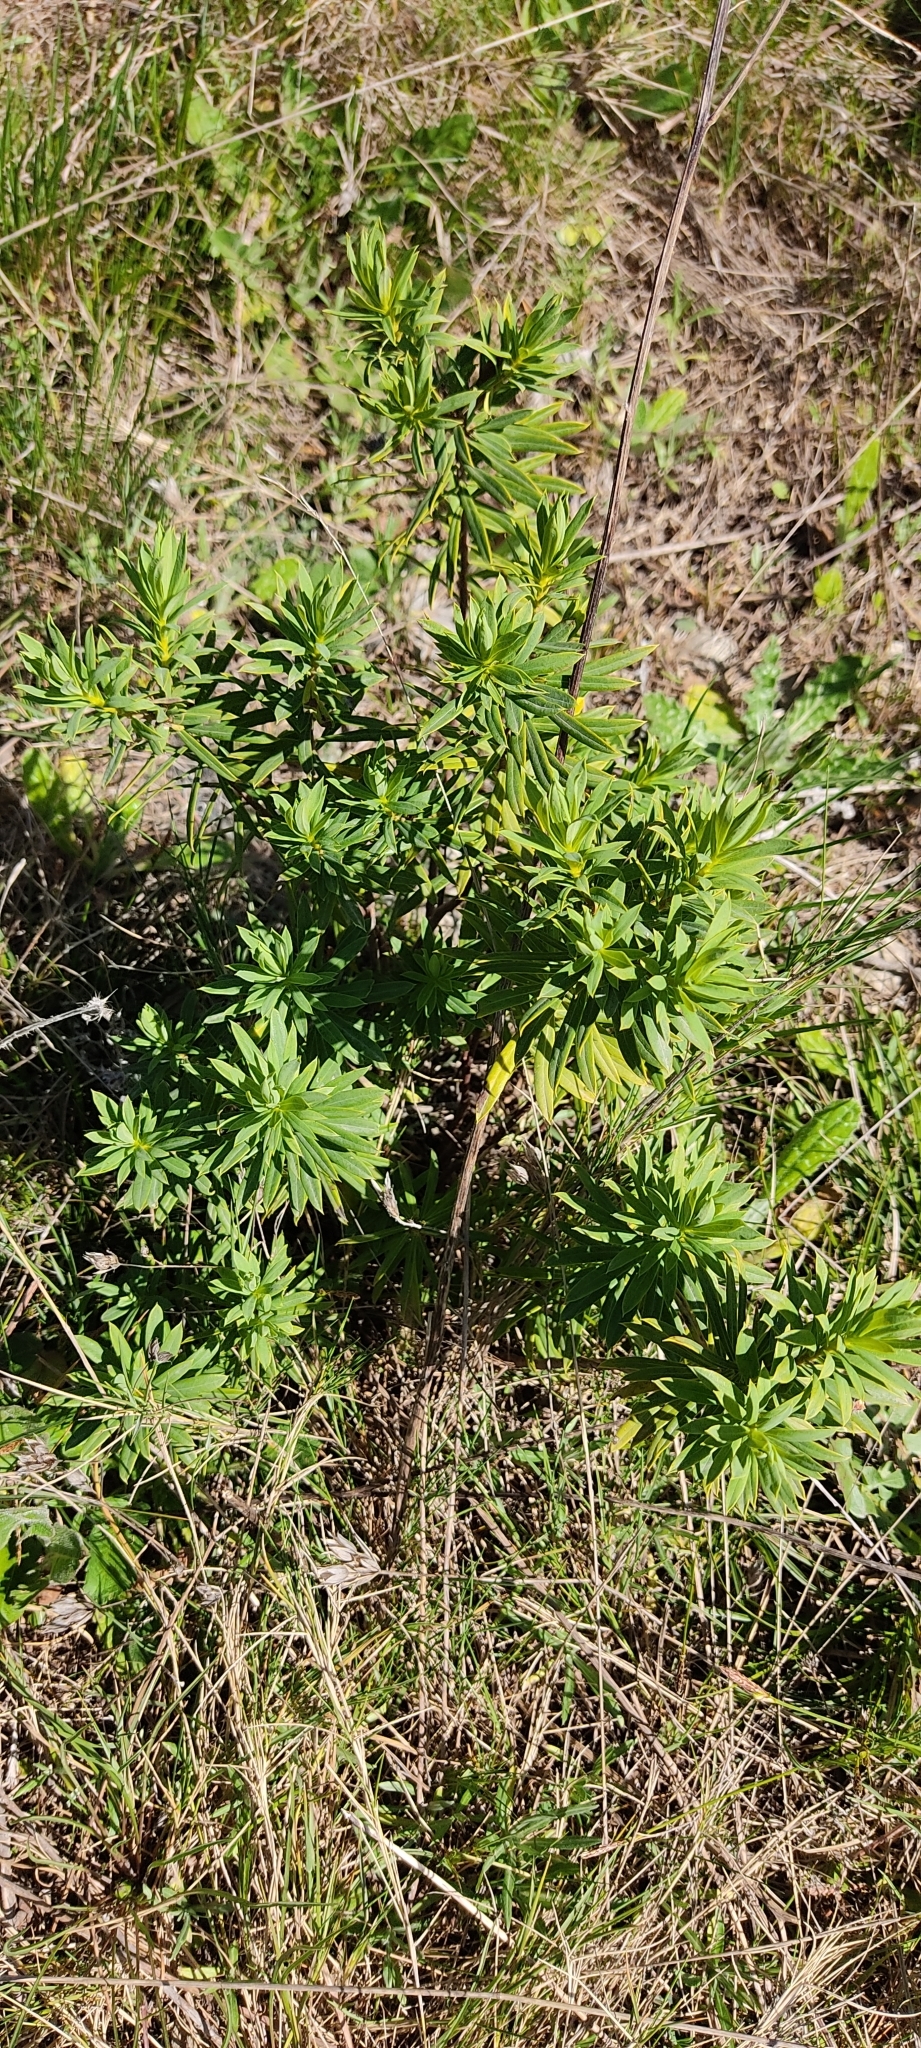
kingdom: Plantae
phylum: Tracheophyta
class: Magnoliopsida
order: Malvales
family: Thymelaeaceae
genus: Daphne
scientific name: Daphne gnidium
